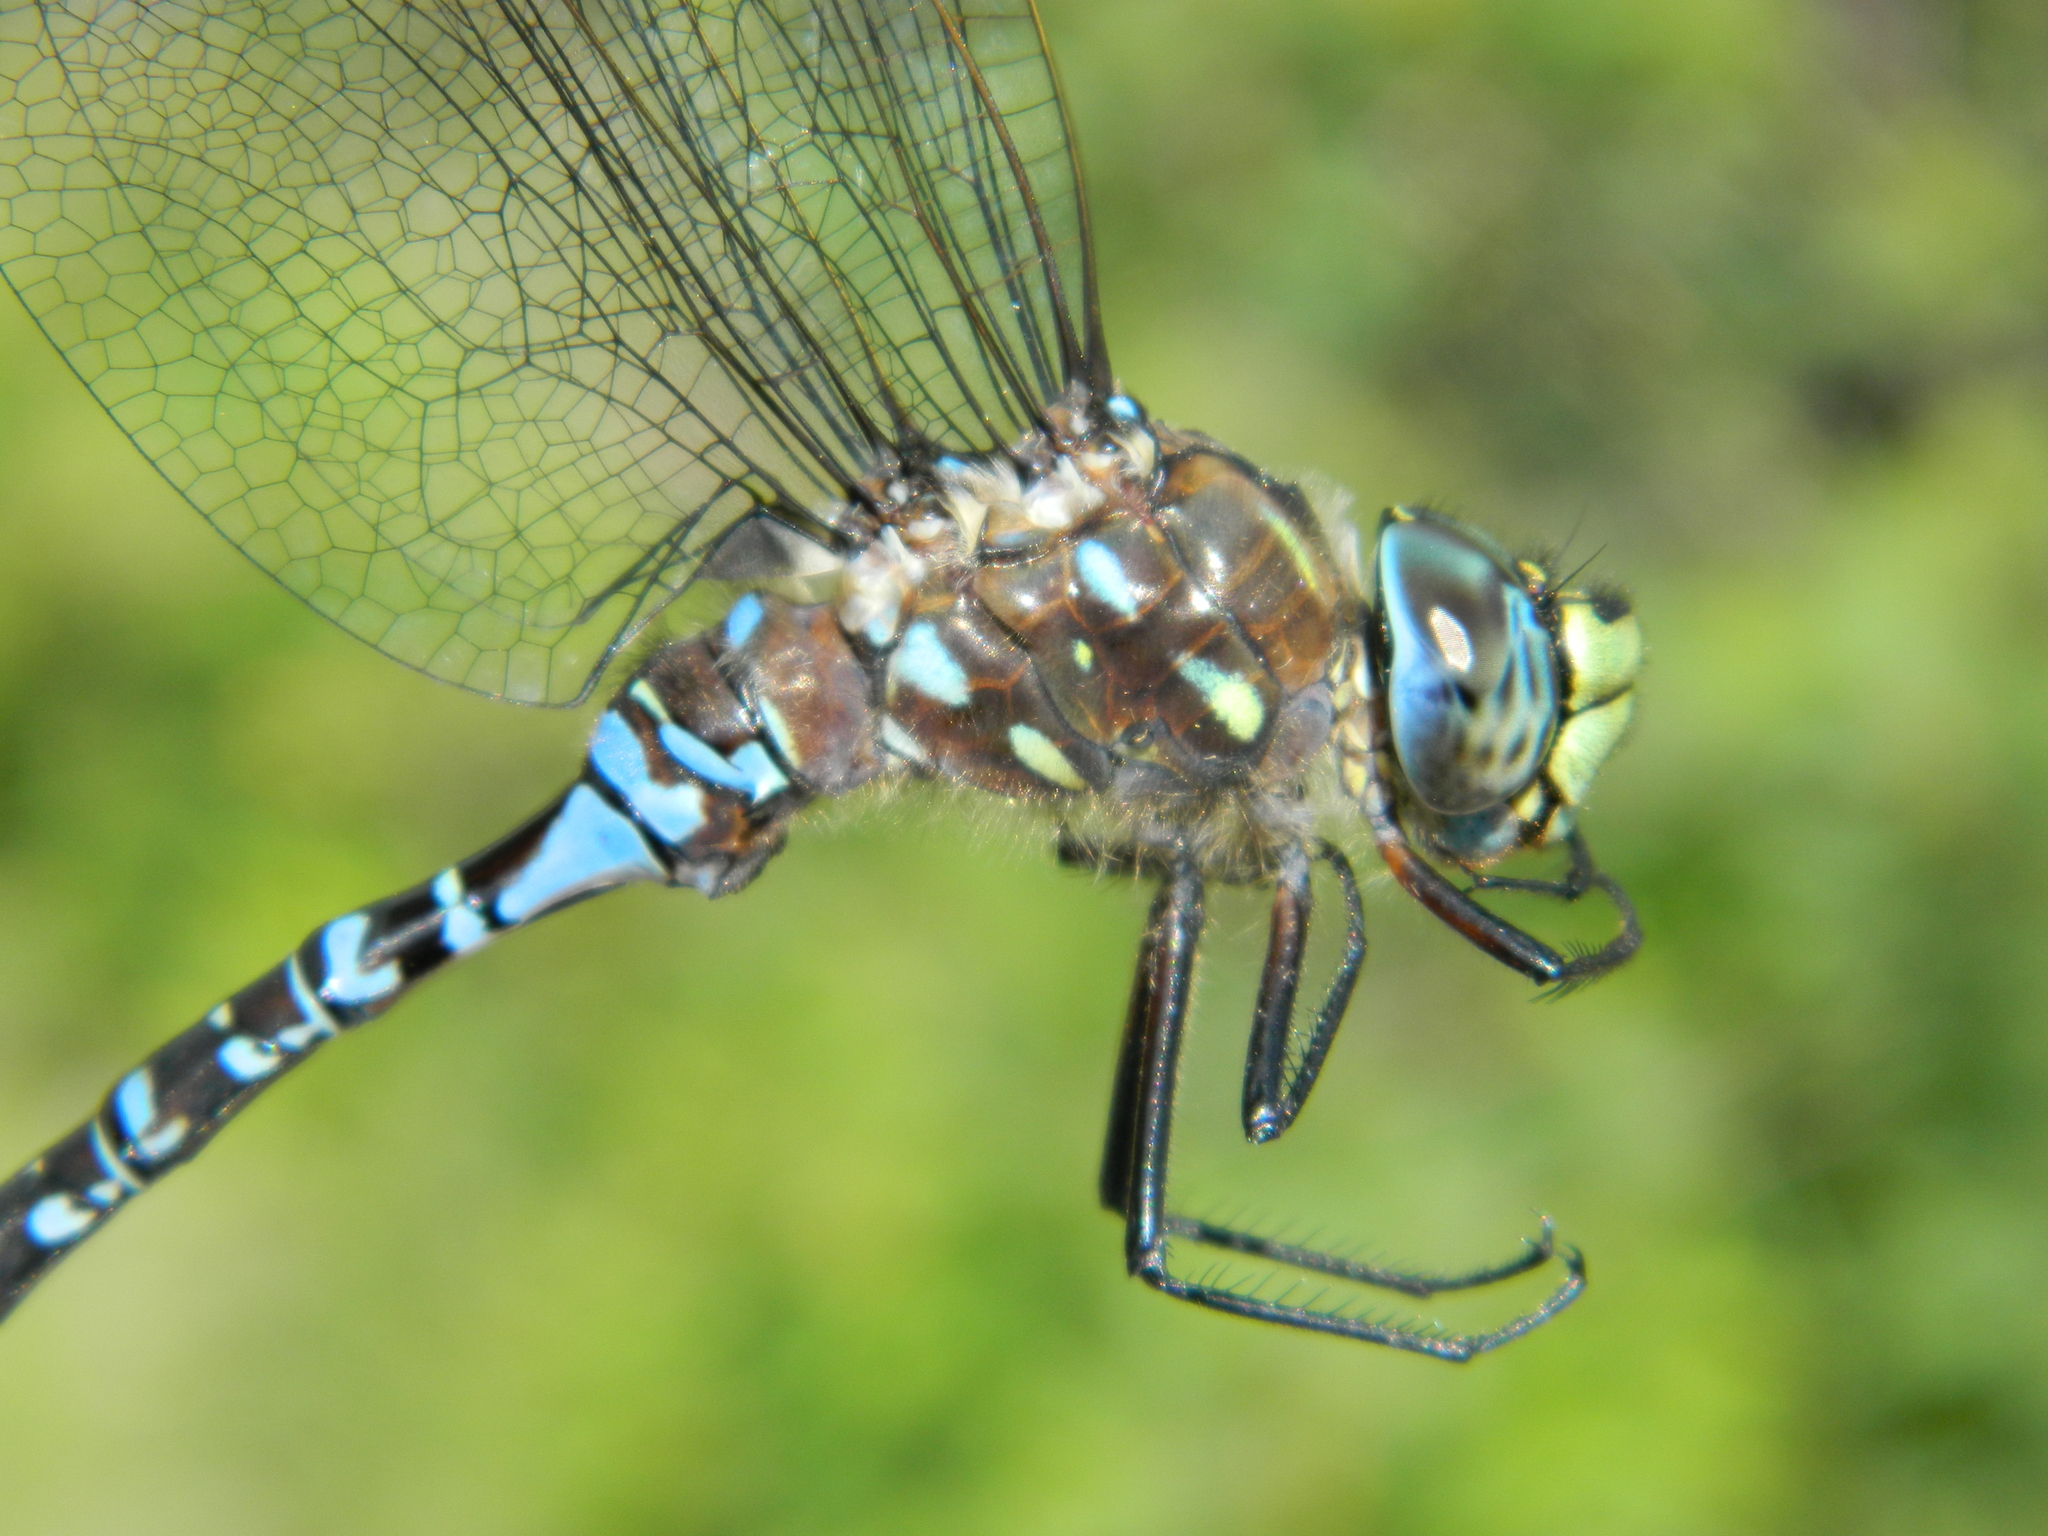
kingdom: Animalia
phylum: Arthropoda
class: Insecta
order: Odonata
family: Aeshnidae
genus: Aeshna
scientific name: Aeshna interrupta
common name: Variable darner
